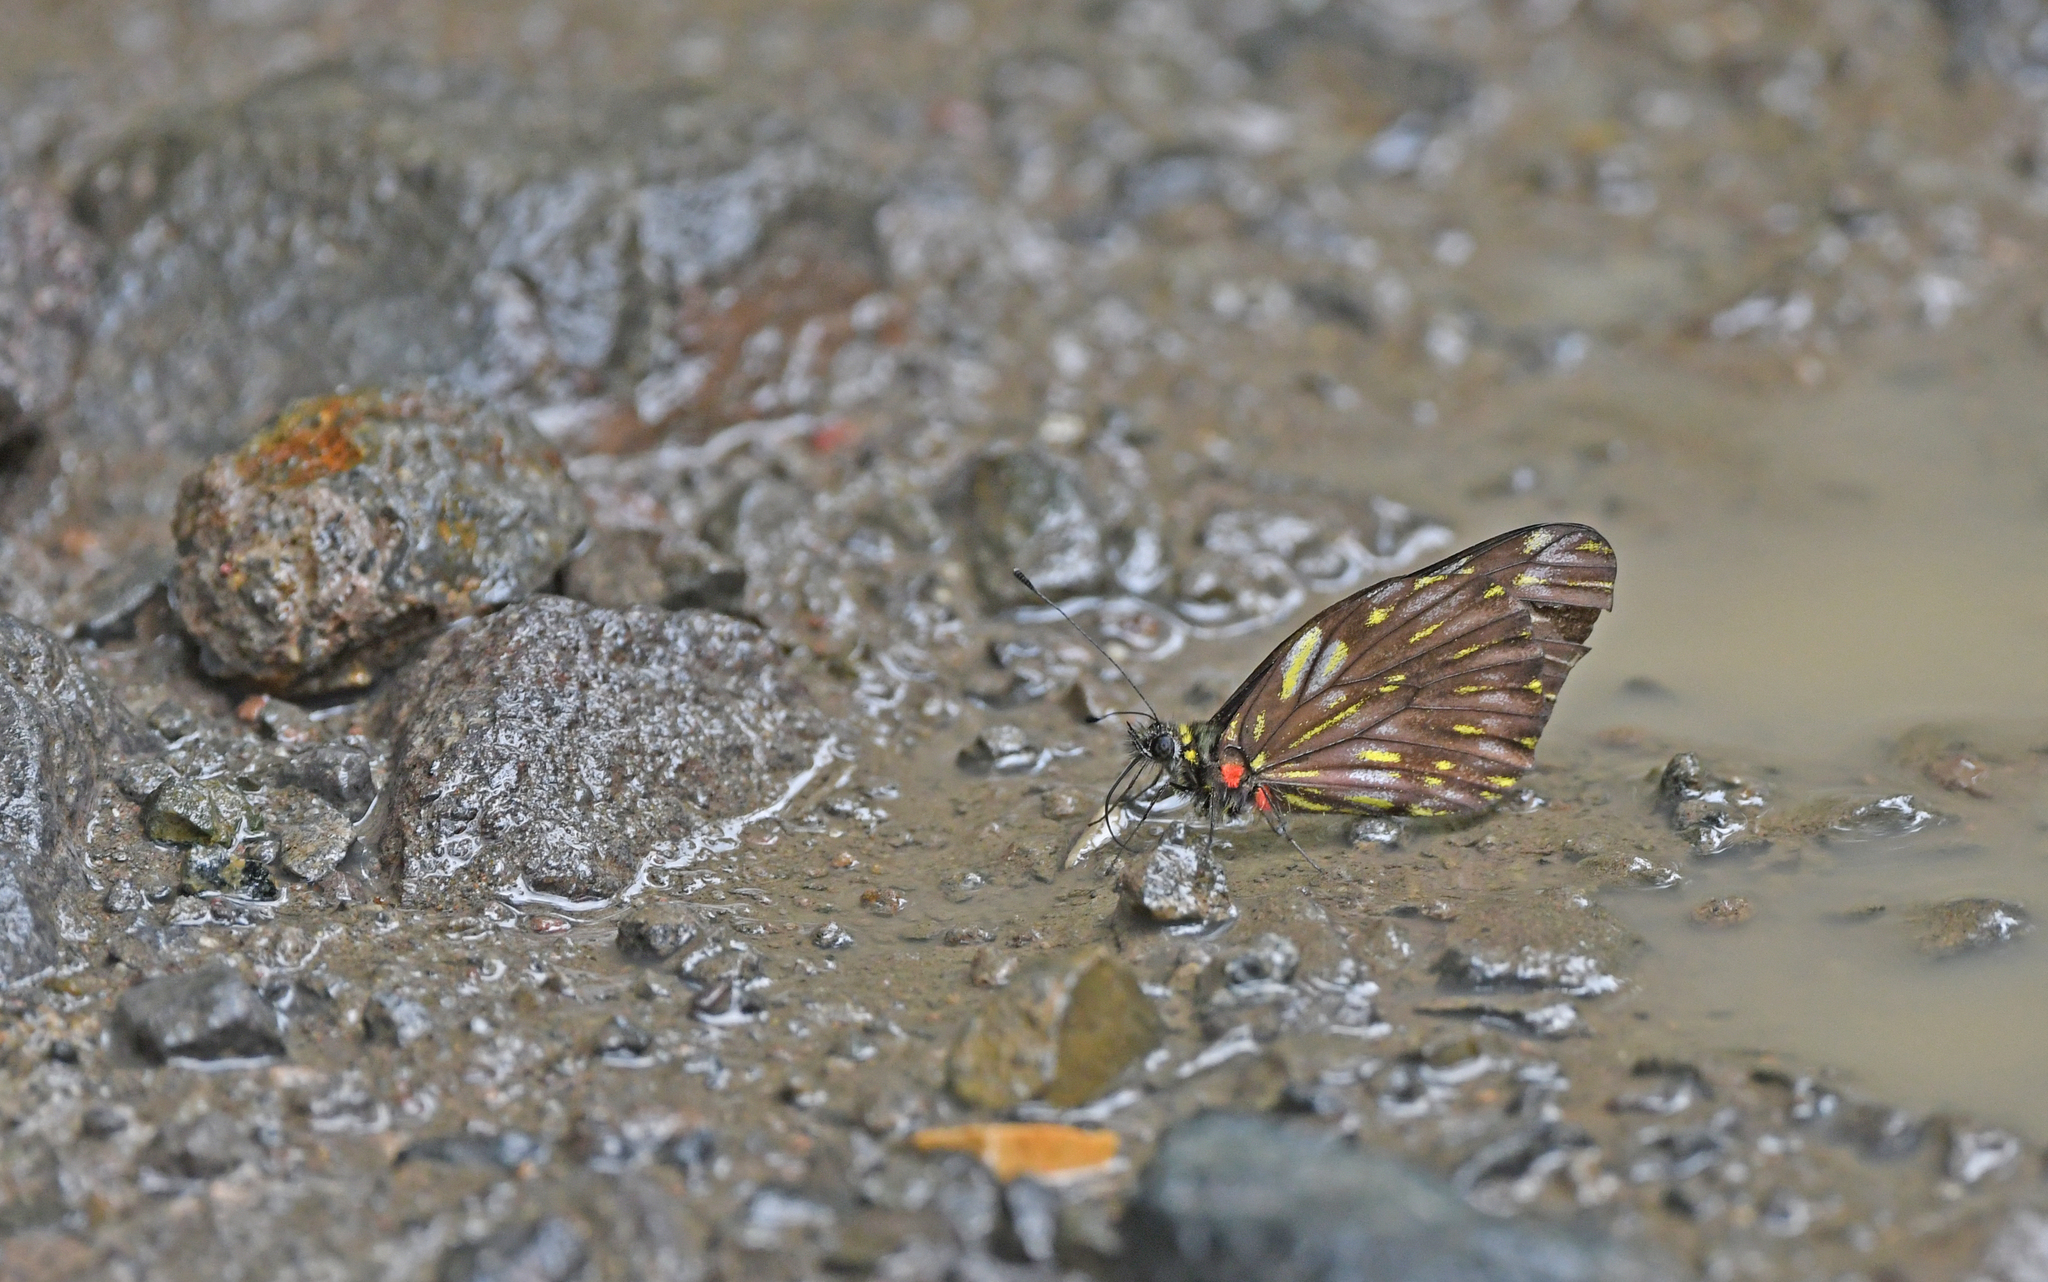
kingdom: Animalia
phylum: Arthropoda
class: Insecta
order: Lepidoptera
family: Pieridae
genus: Catasticta
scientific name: Catasticta ctemene
